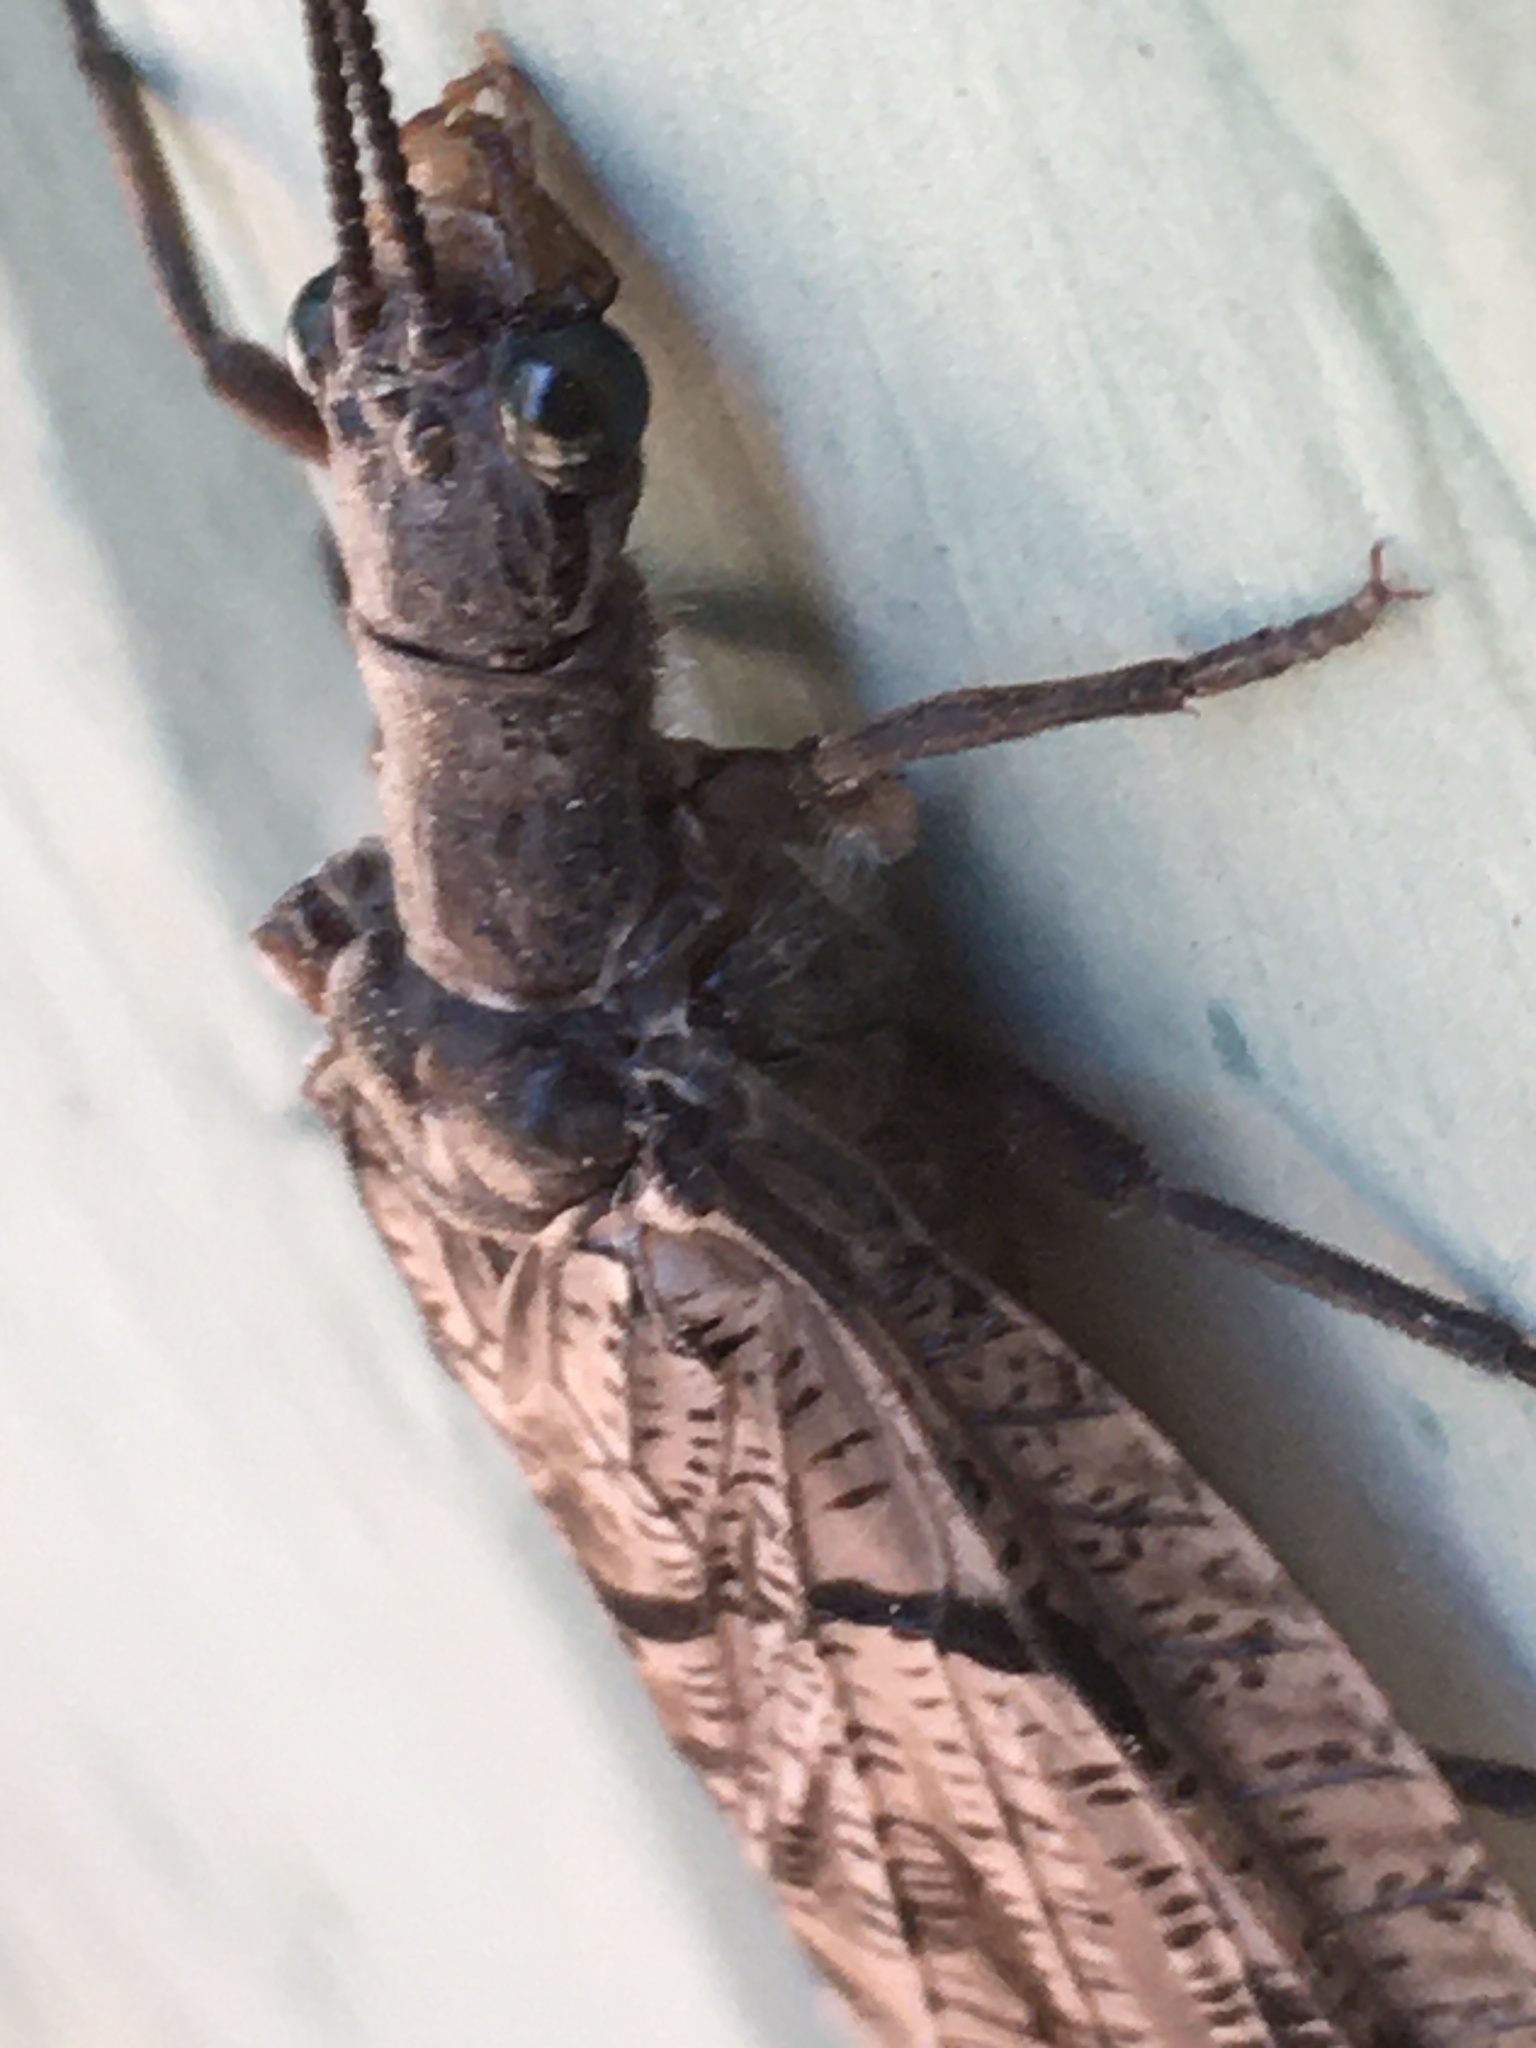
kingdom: Animalia
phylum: Arthropoda
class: Insecta
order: Megaloptera
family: Corydalidae
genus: Neohermes
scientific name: Neohermes californicus
